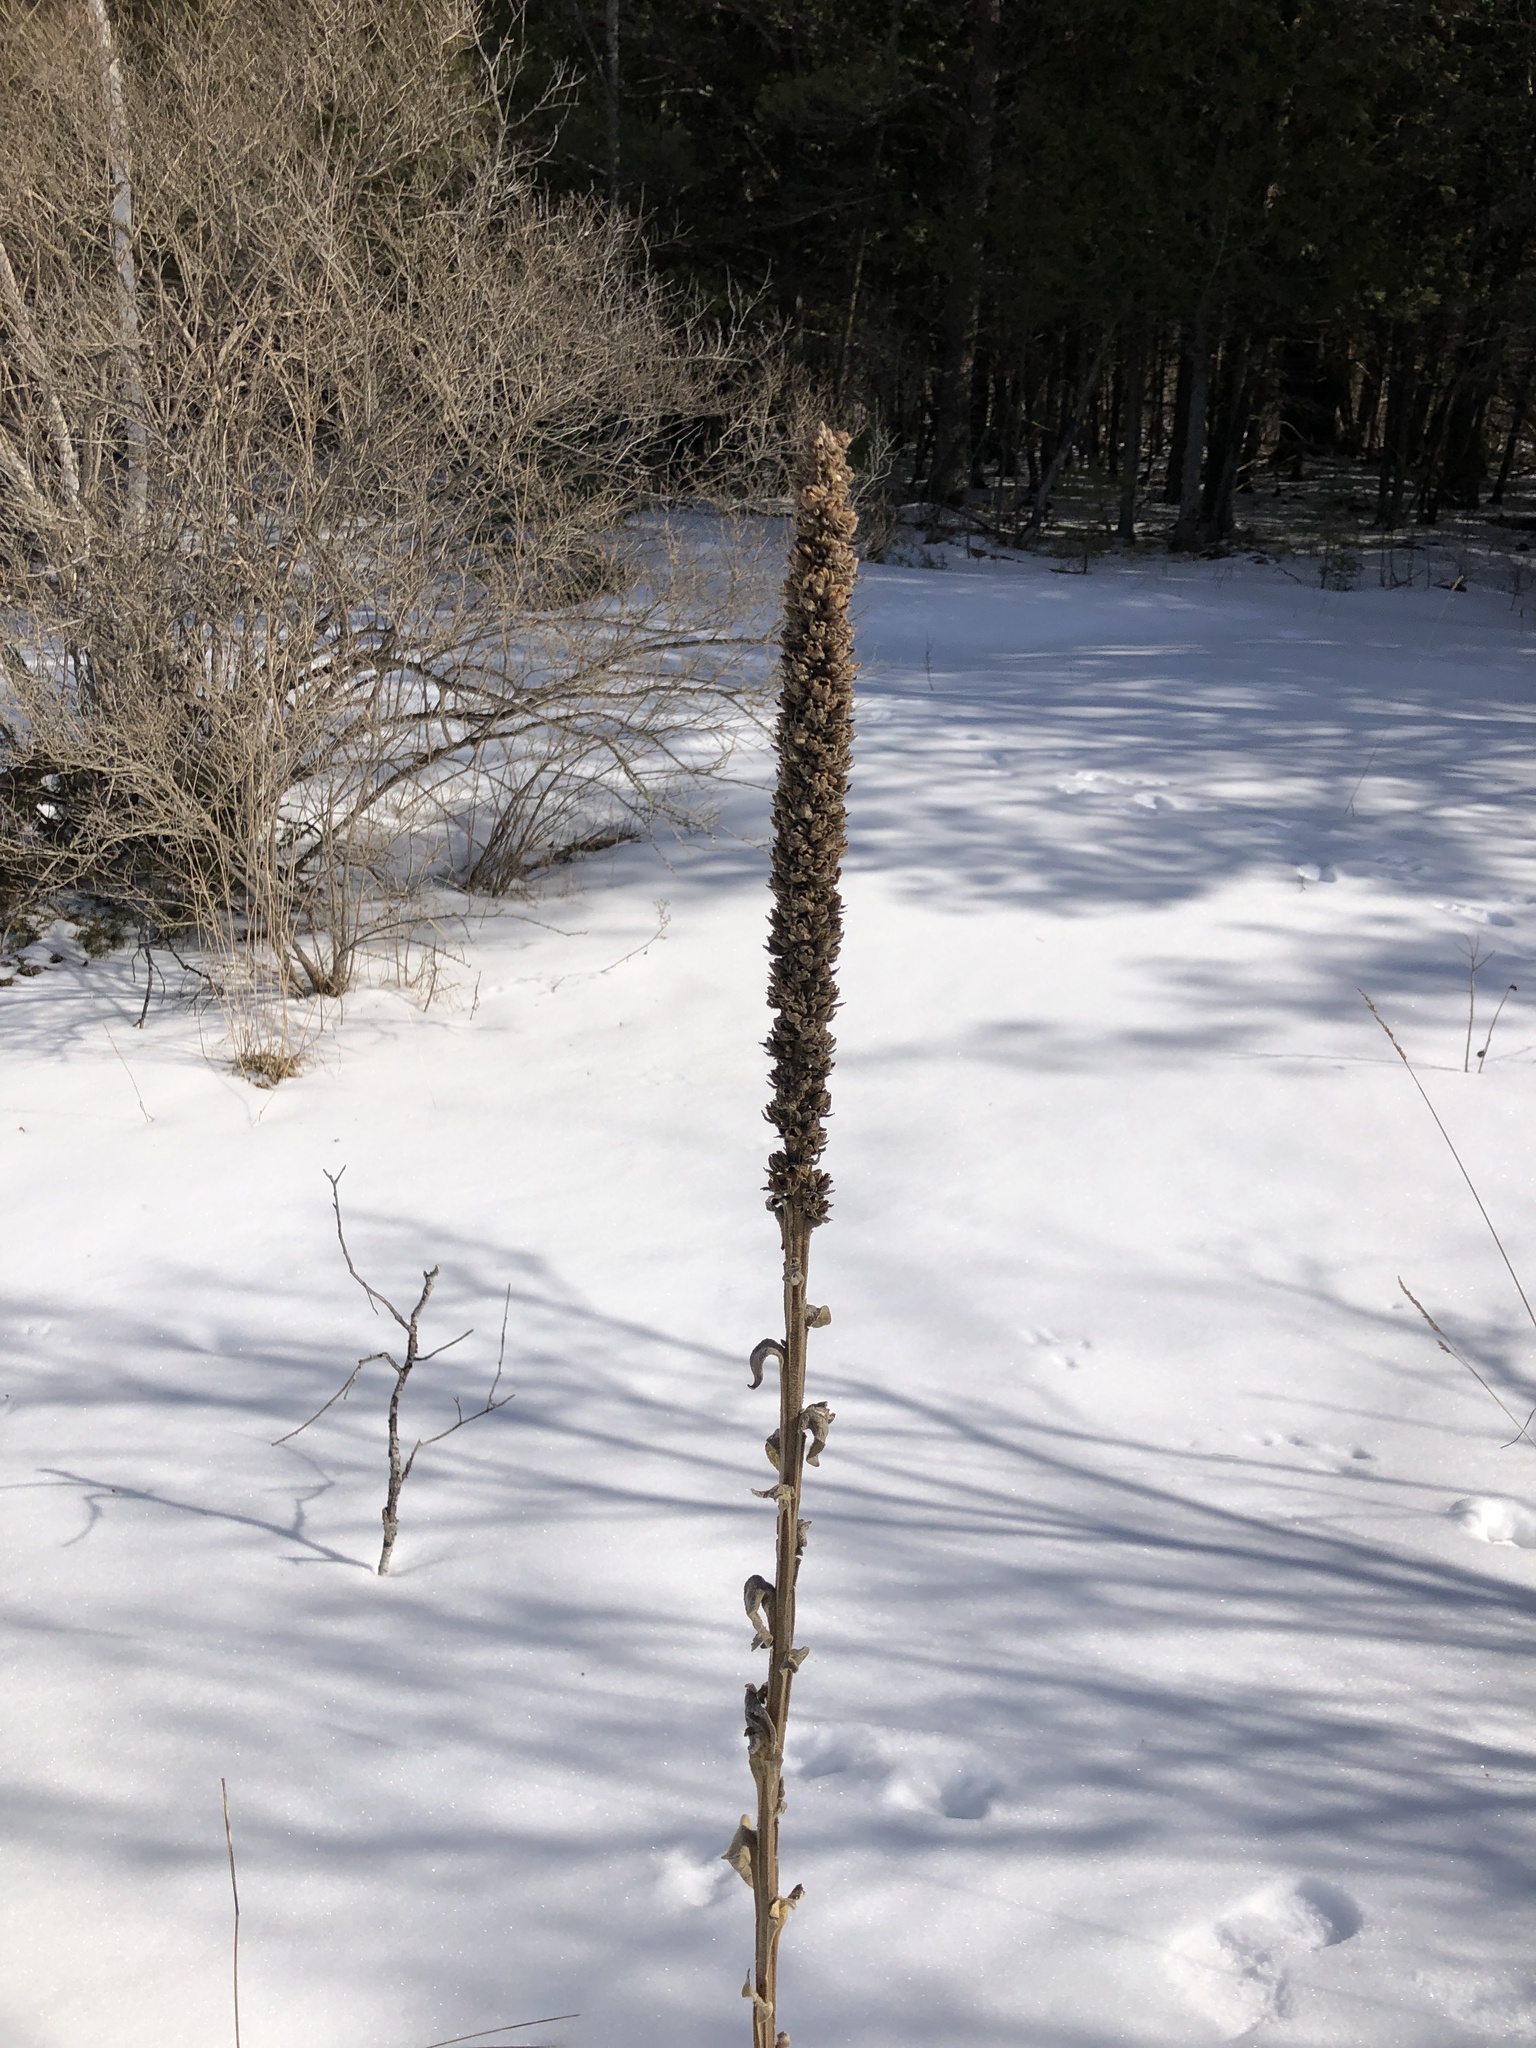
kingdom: Plantae
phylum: Tracheophyta
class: Magnoliopsida
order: Lamiales
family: Scrophulariaceae
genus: Verbascum
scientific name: Verbascum thapsus
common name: Common mullein
